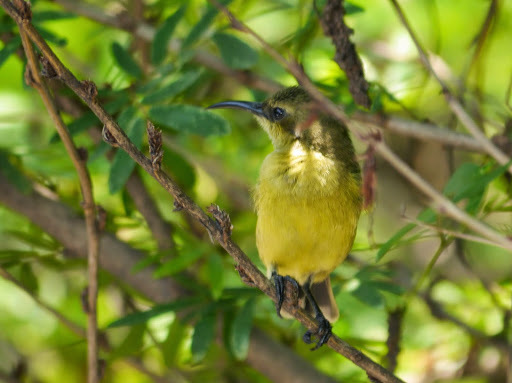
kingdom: Animalia
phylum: Chordata
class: Aves
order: Passeriformes
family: Nectariniidae
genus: Cinnyris
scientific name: Cinnyris superbus
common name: Superb sunbird
